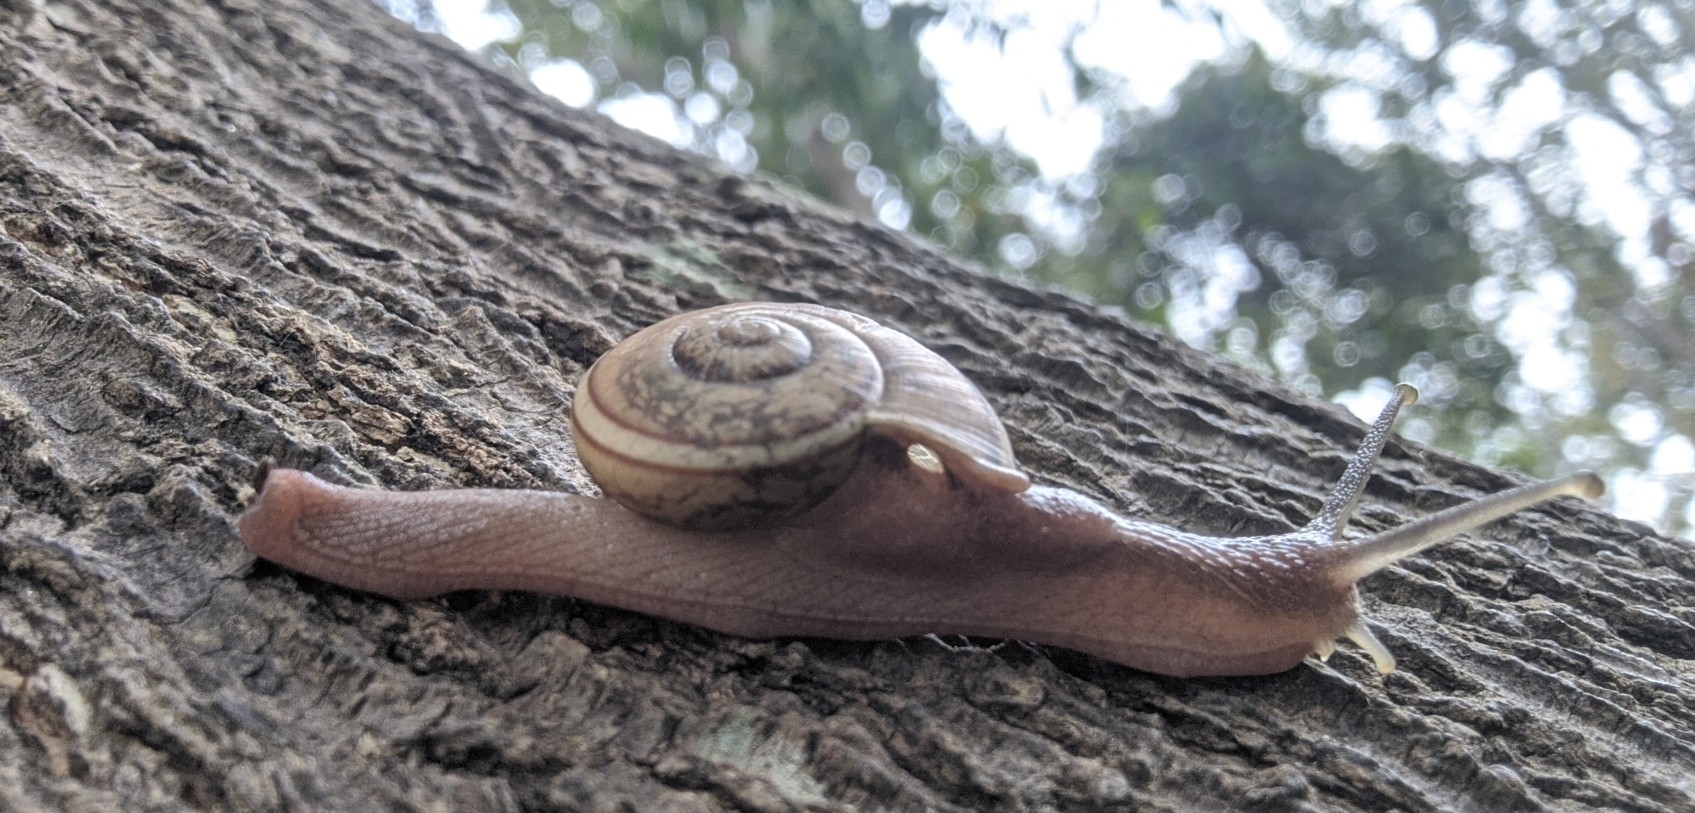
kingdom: Animalia
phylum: Mollusca
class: Gastropoda
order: Stylommatophora
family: Ariophantidae
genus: Ariophanta
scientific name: Ariophanta exilis
